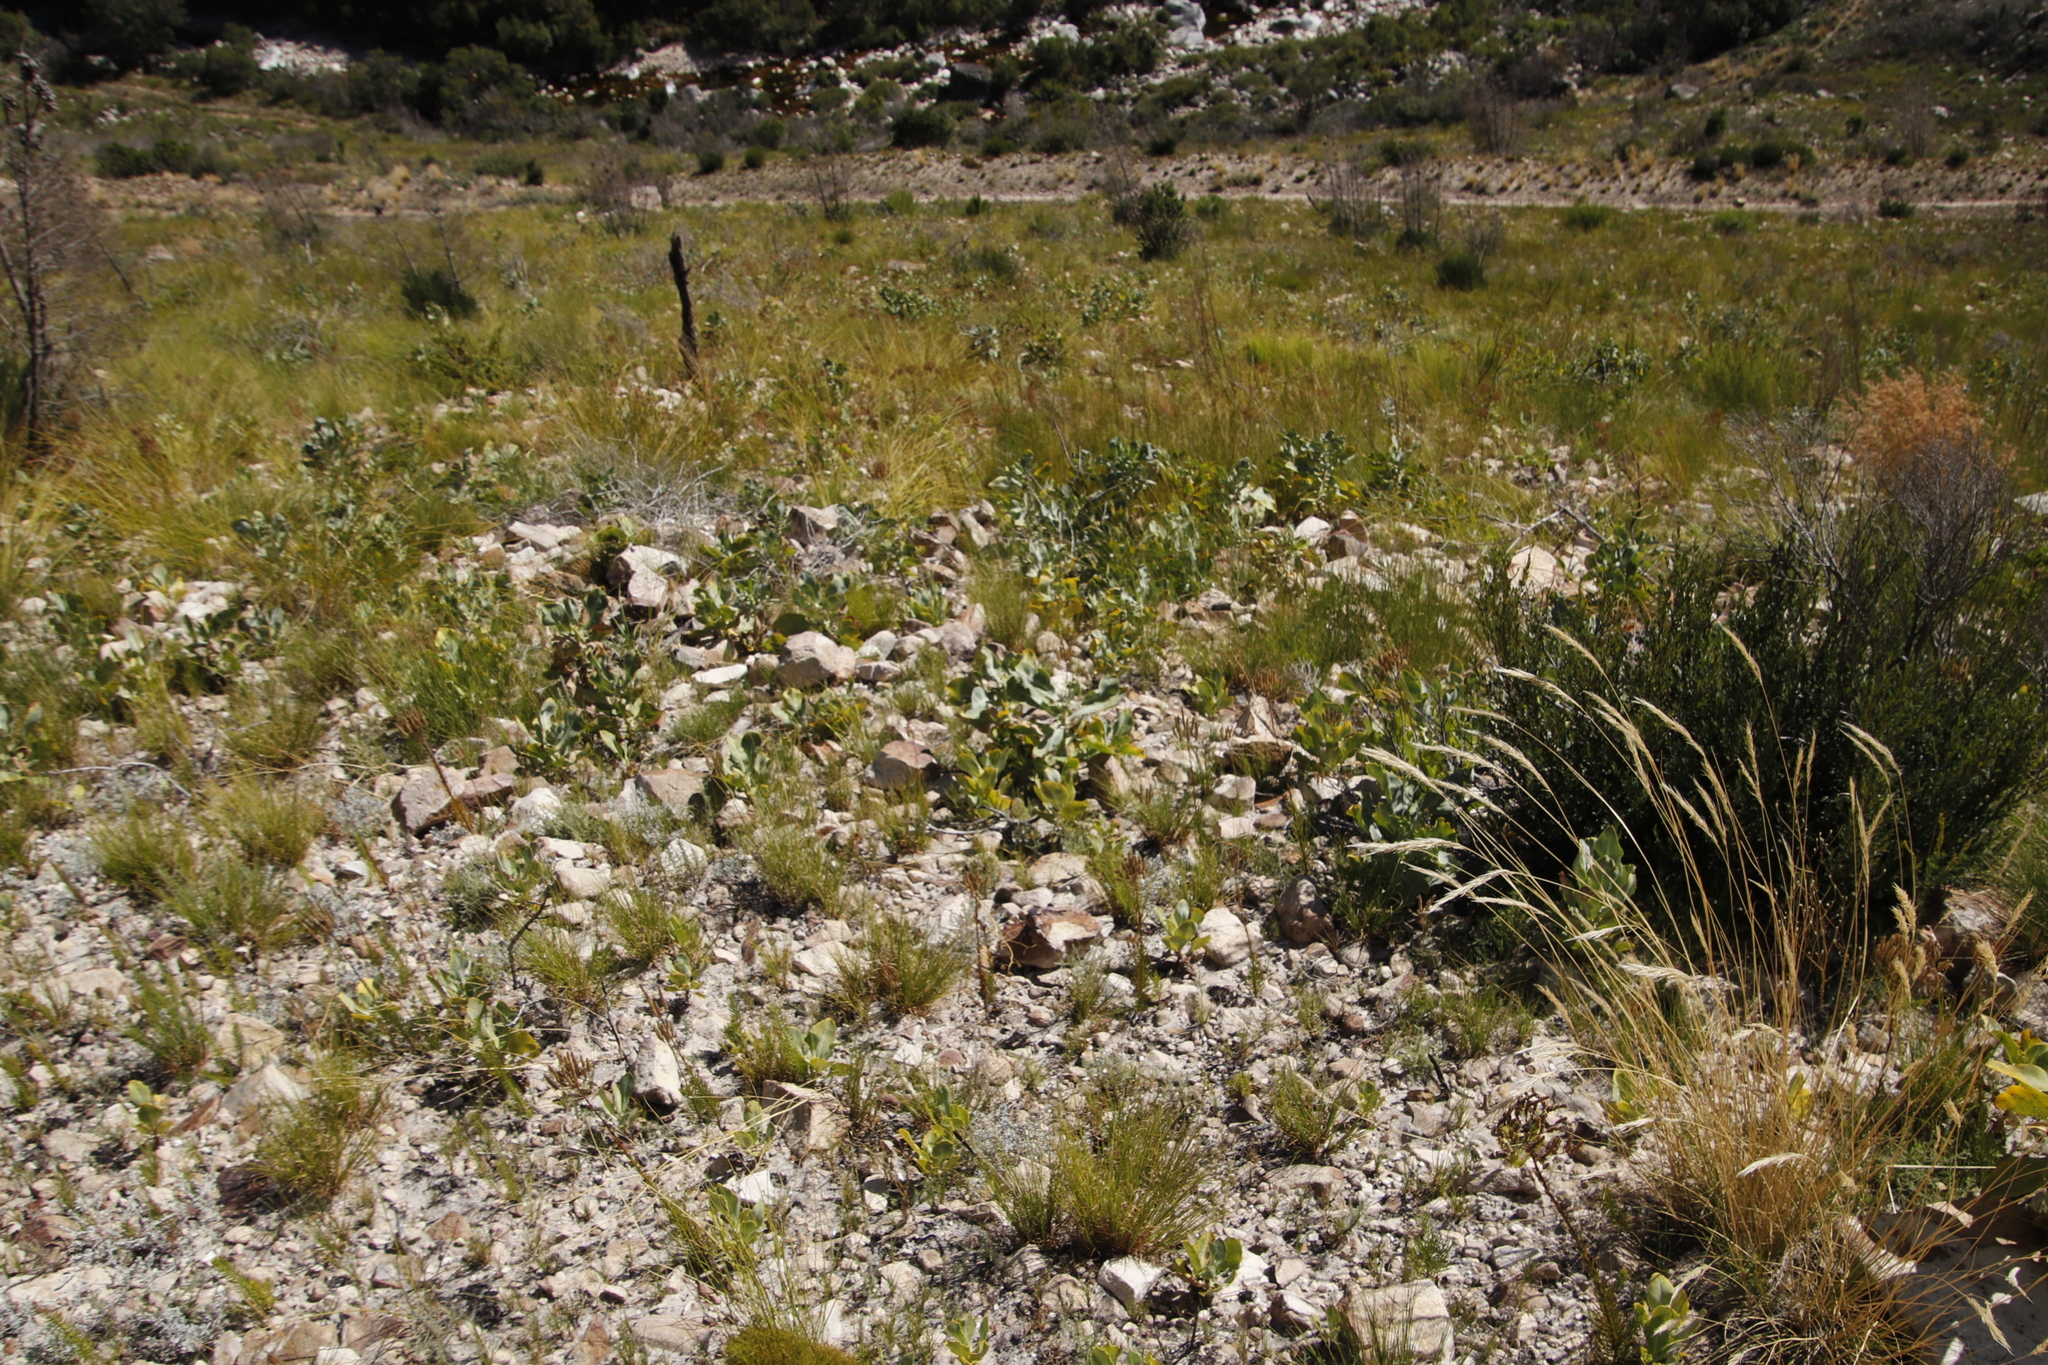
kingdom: Plantae
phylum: Tracheophyta
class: Magnoliopsida
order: Asterales
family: Asteraceae
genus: Othonna
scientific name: Othonna parviflora
